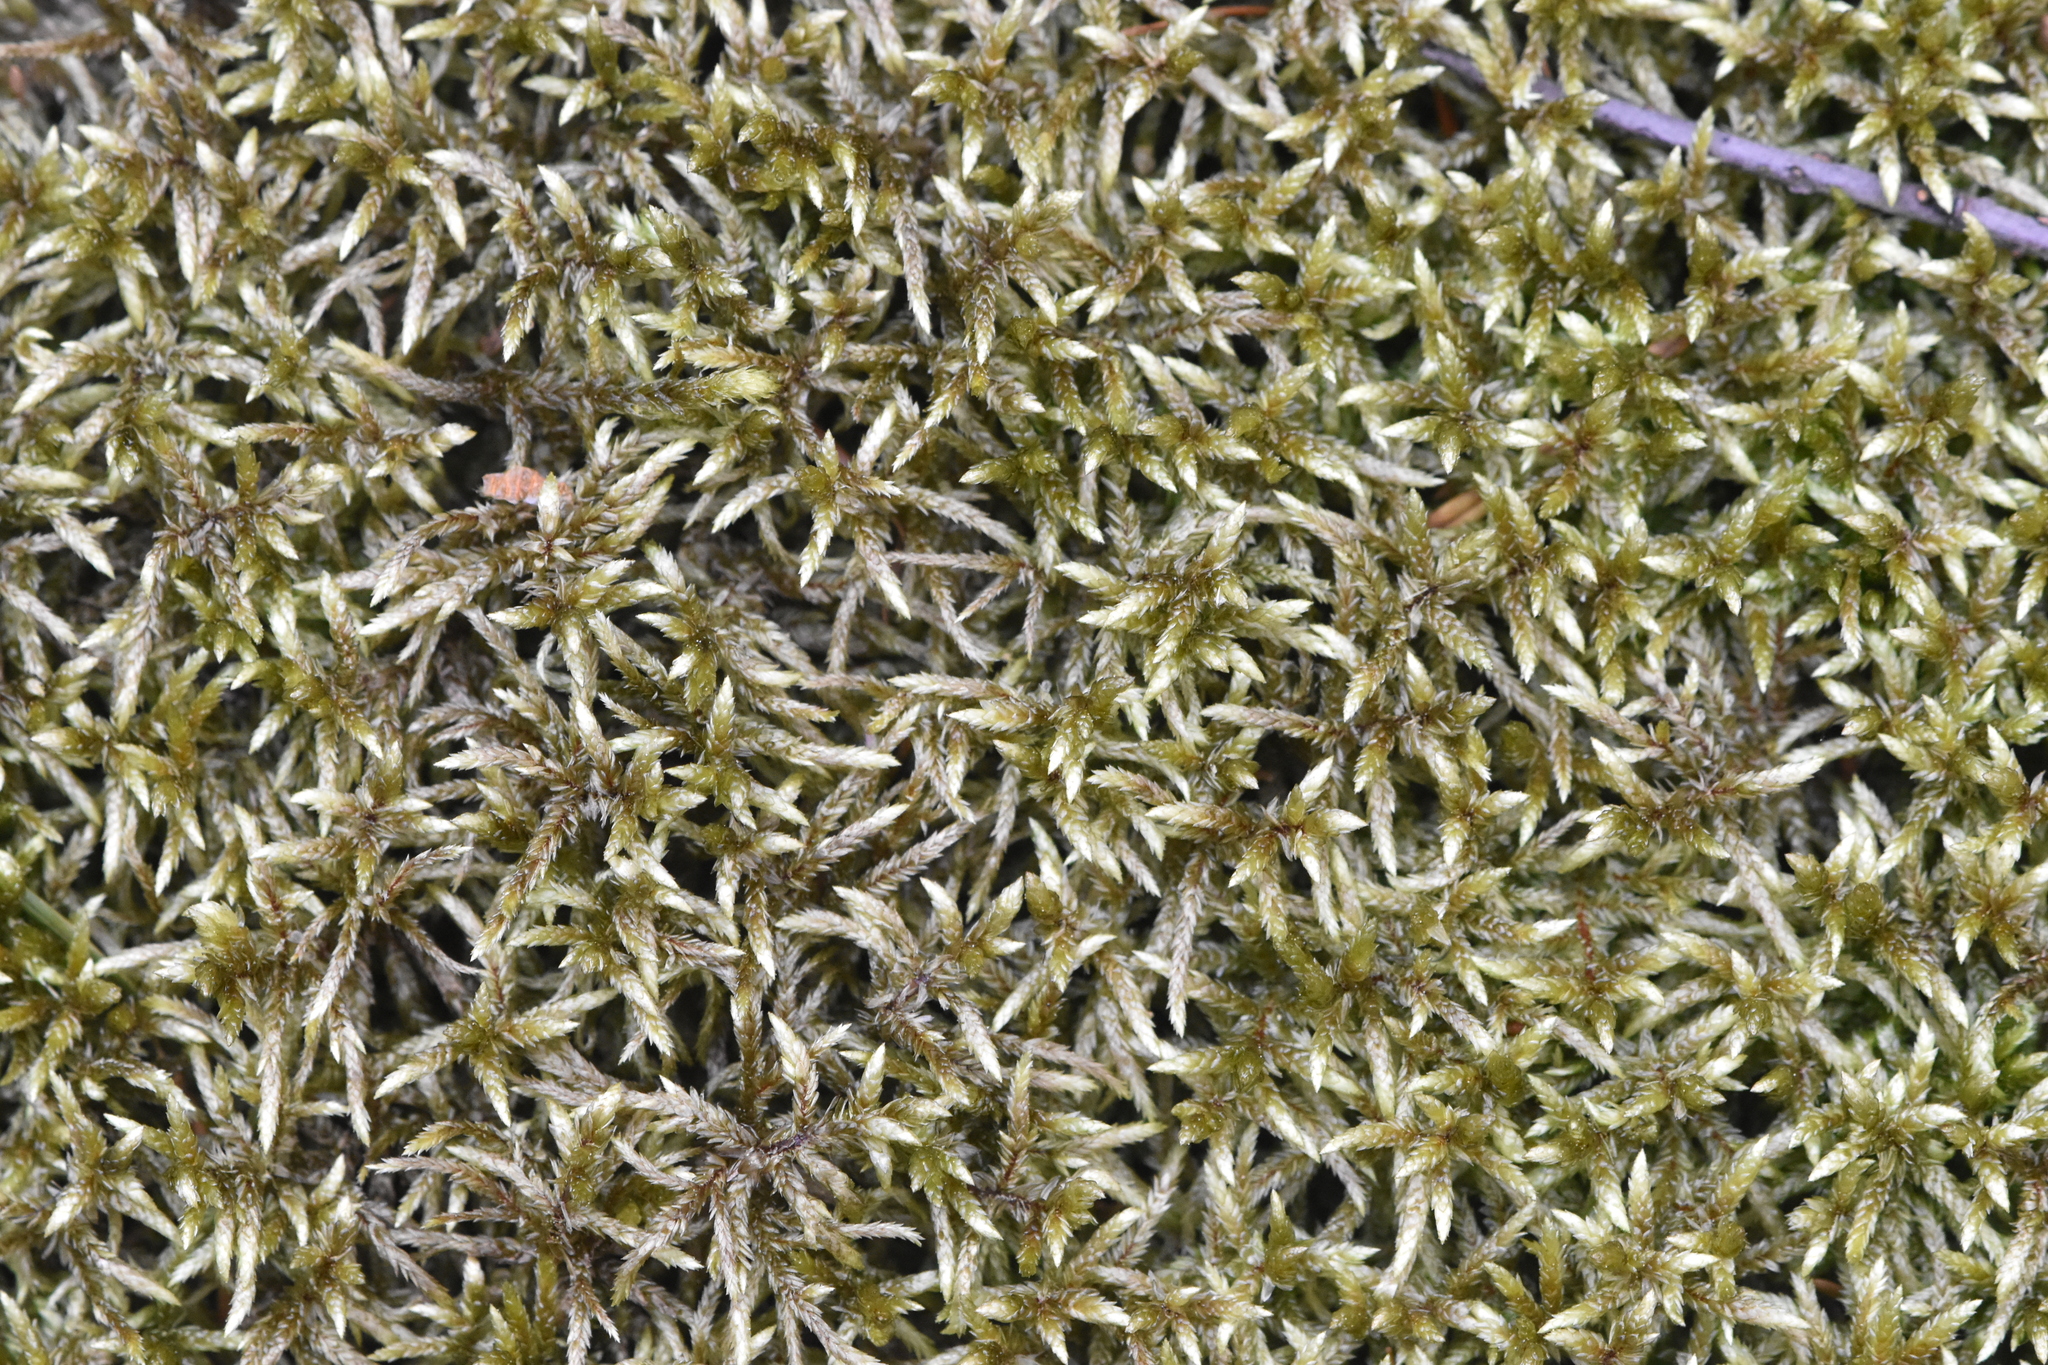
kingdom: Plantae
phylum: Bryophyta
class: Bryopsida
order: Hypnales
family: Hylocomiaceae
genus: Pleurozium
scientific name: Pleurozium schreberi
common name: Red-stemmed feather moss
